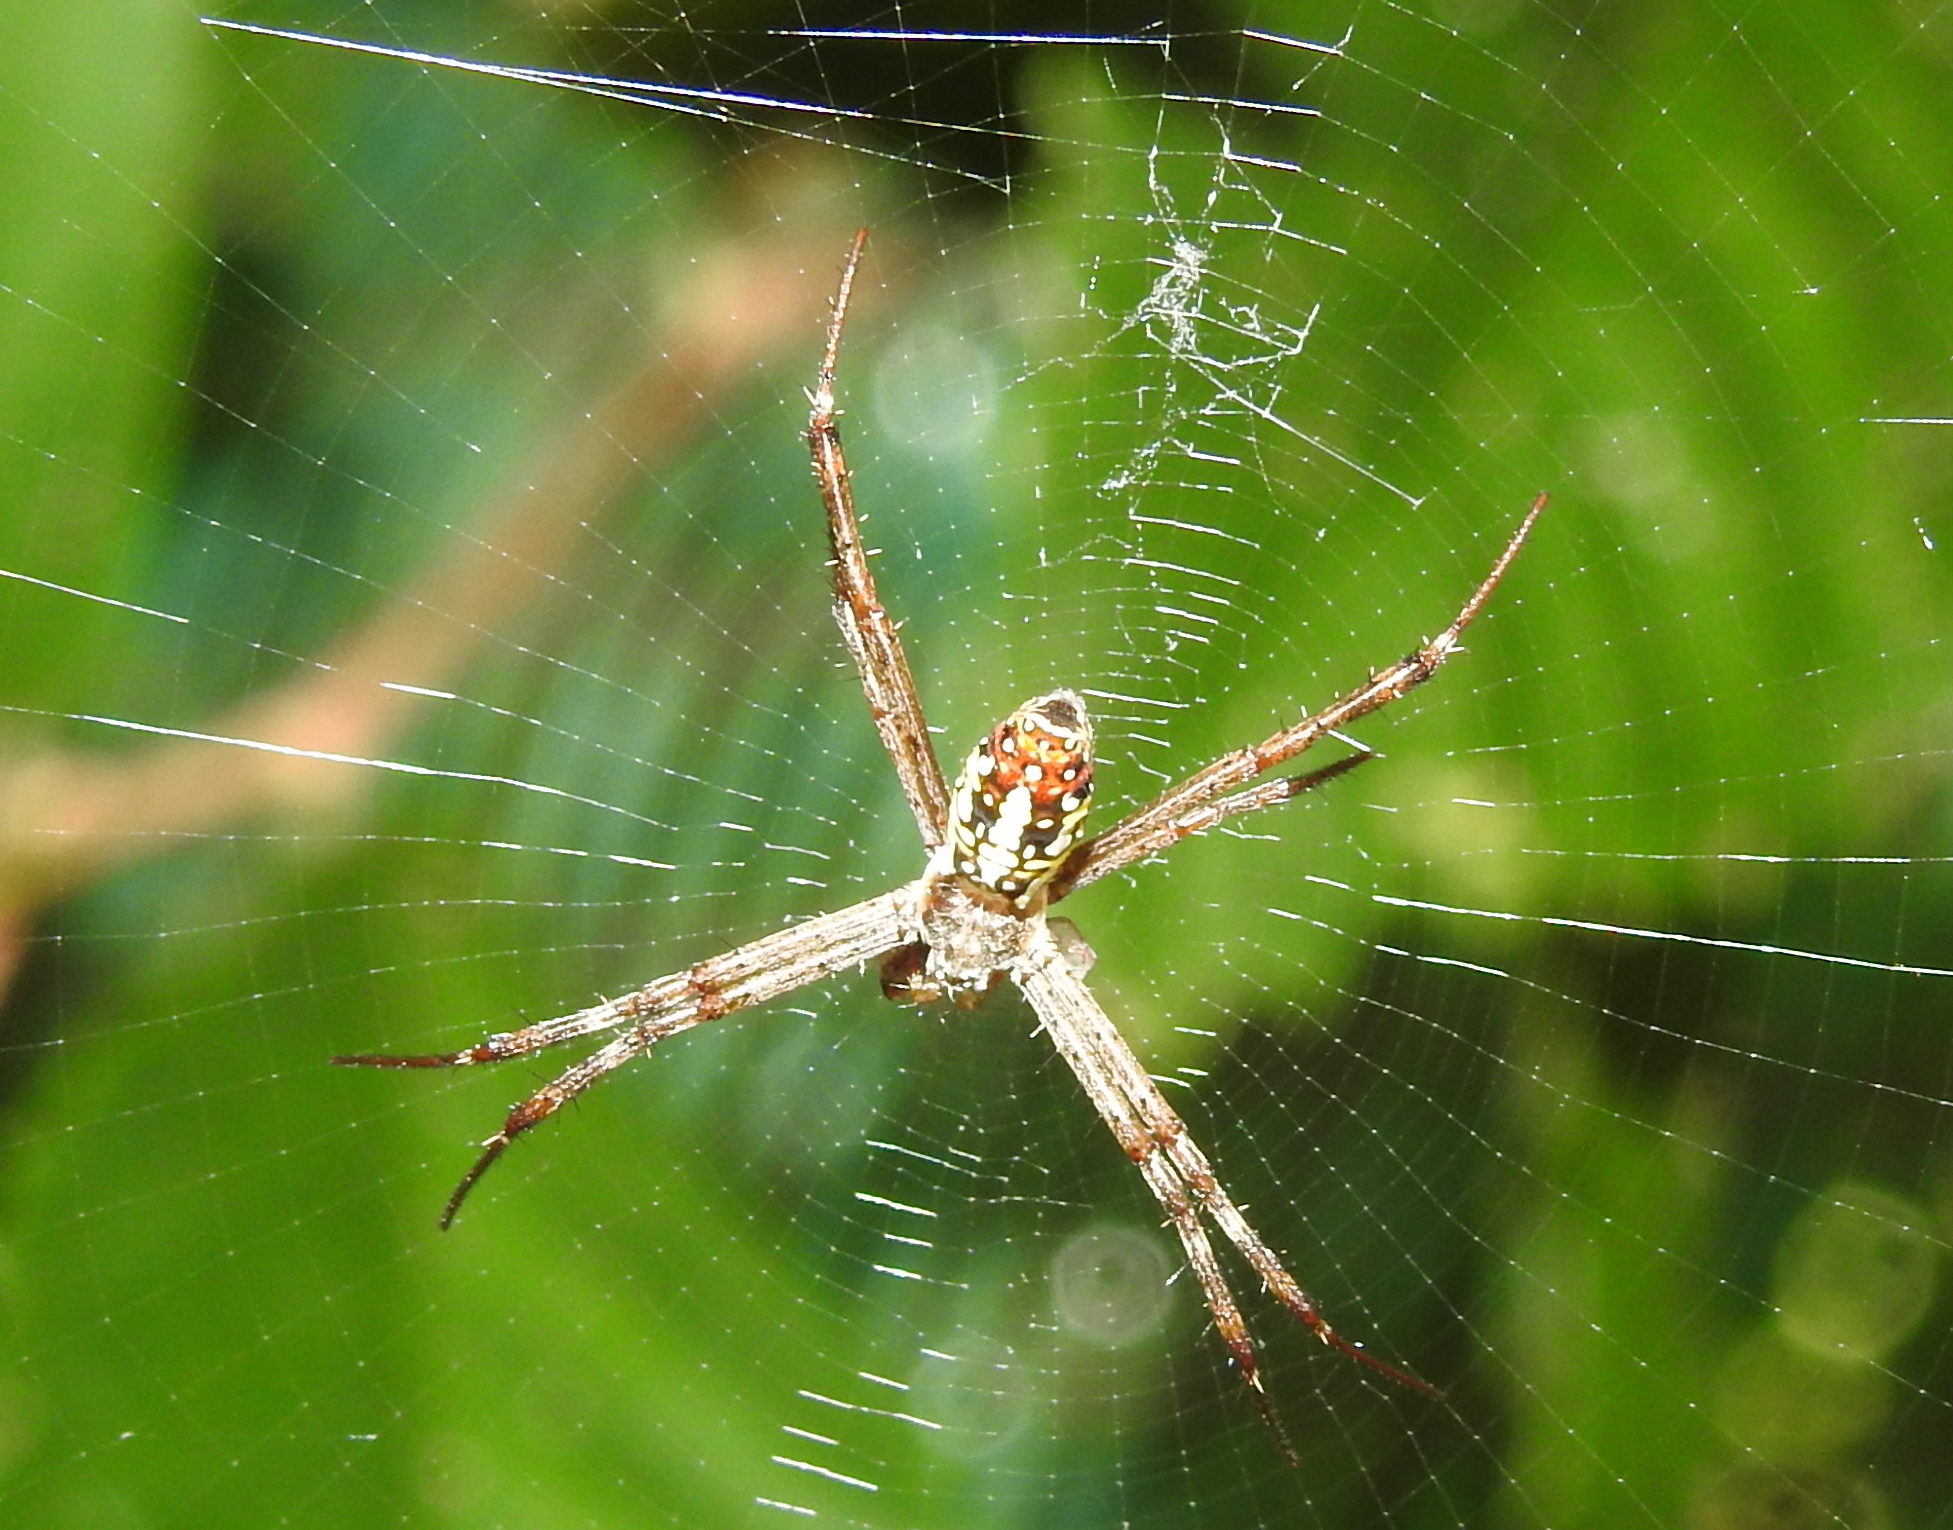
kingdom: Animalia
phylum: Arthropoda
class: Arachnida
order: Araneae
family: Araneidae
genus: Argiope
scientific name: Argiope dang
